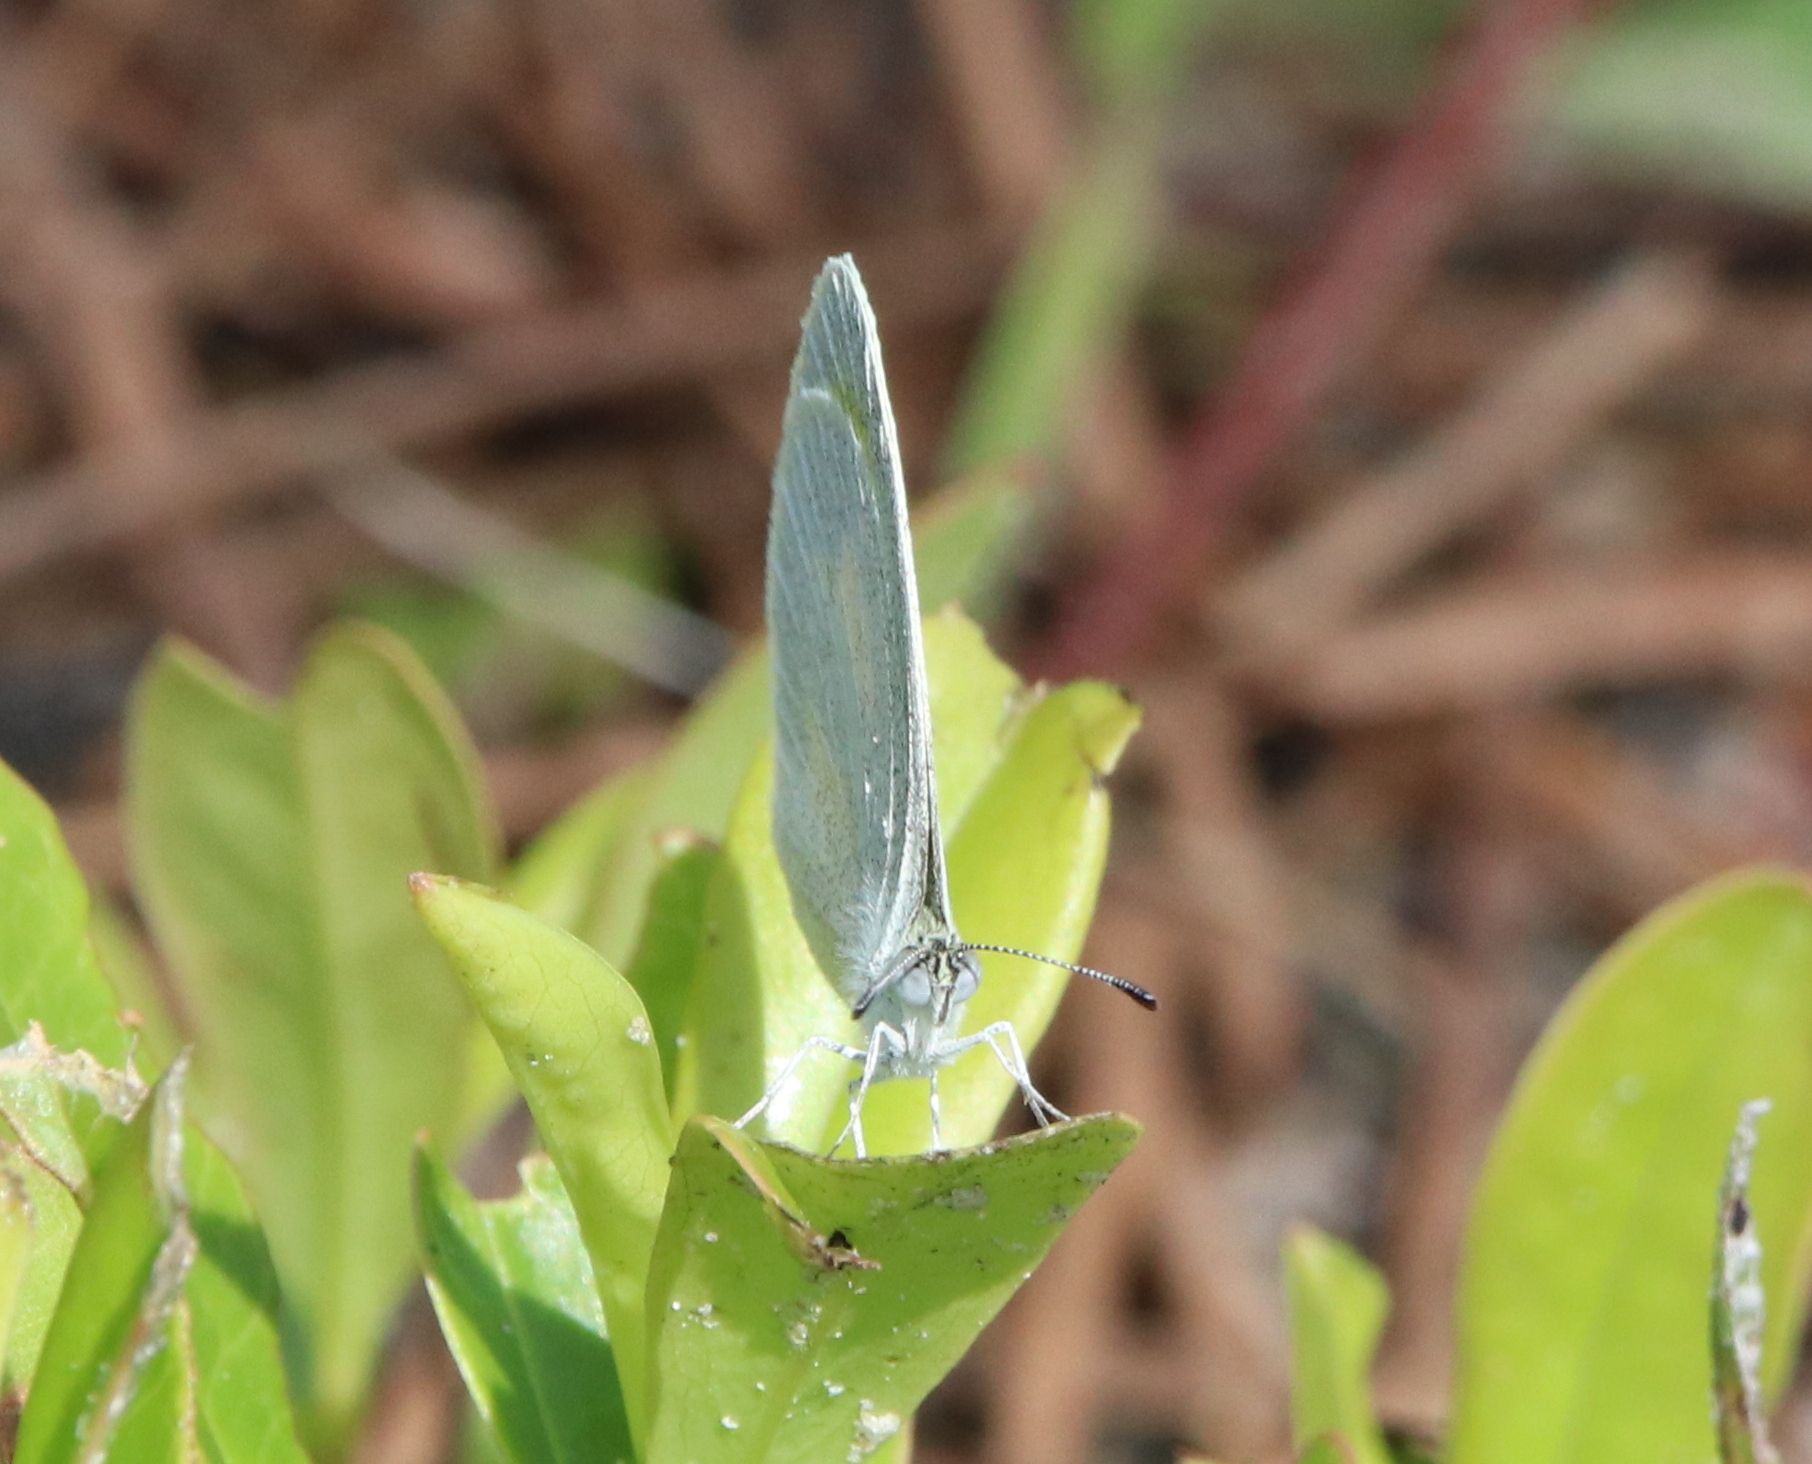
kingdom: Animalia
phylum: Arthropoda
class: Insecta
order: Lepidoptera
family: Pieridae
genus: Eurema
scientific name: Eurema daira
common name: Barred sulphur
